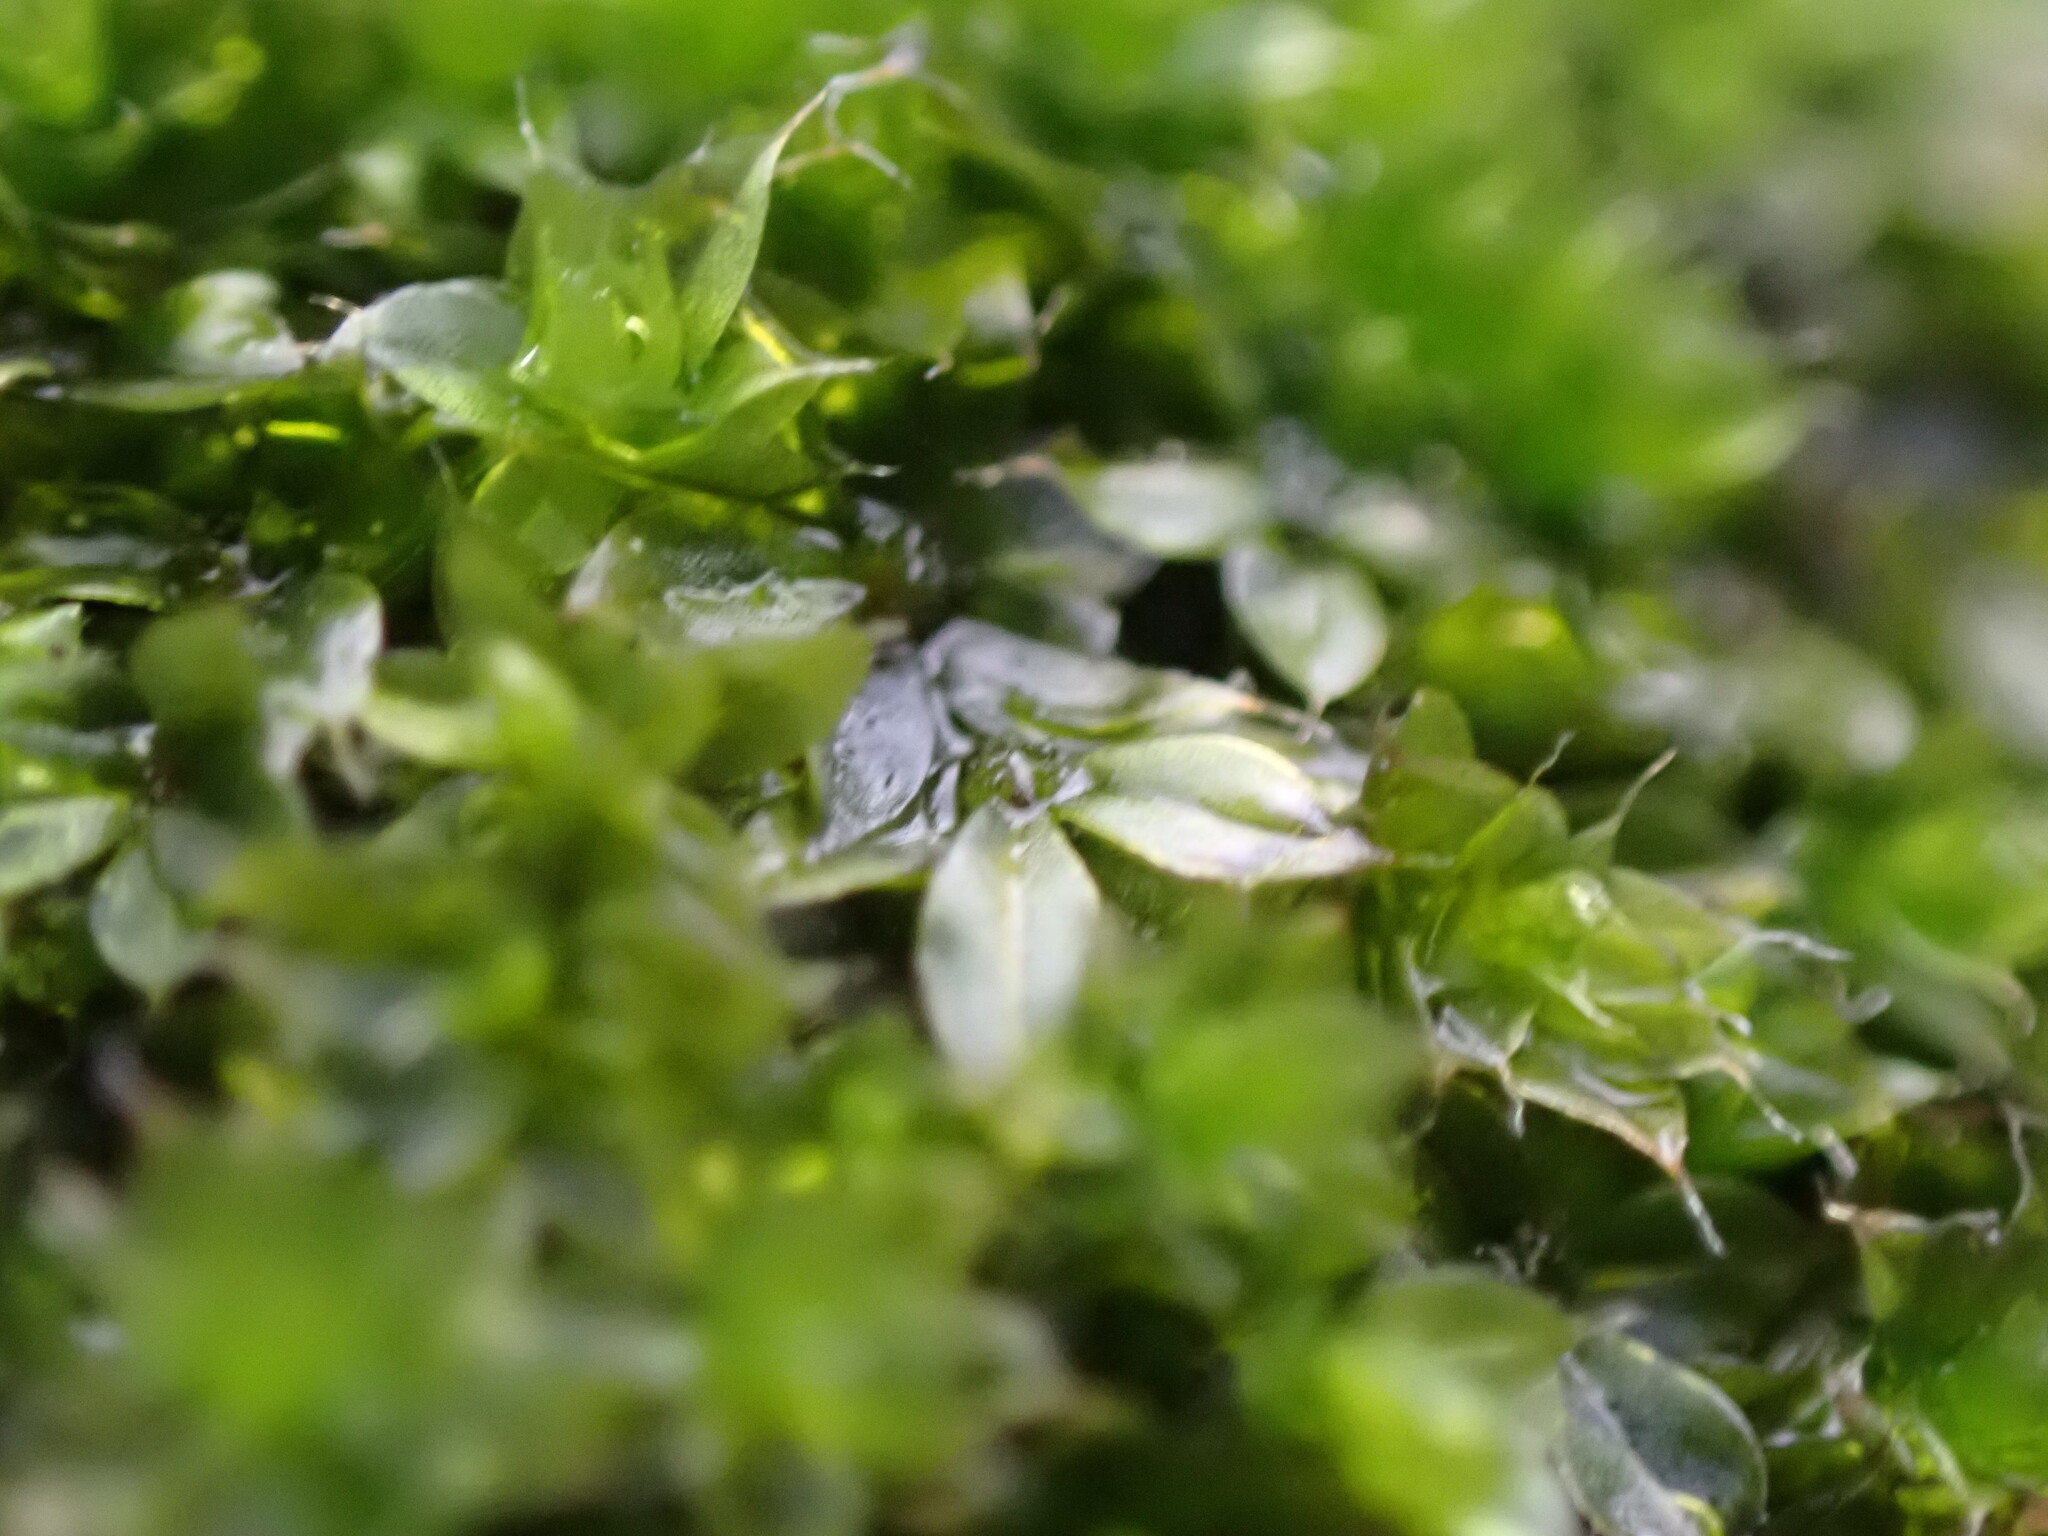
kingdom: Plantae
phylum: Bryophyta
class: Bryopsida
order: Bryales
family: Bryaceae
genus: Rosulabryum
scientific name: Rosulabryum capillare
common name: Capillary thread-moss
